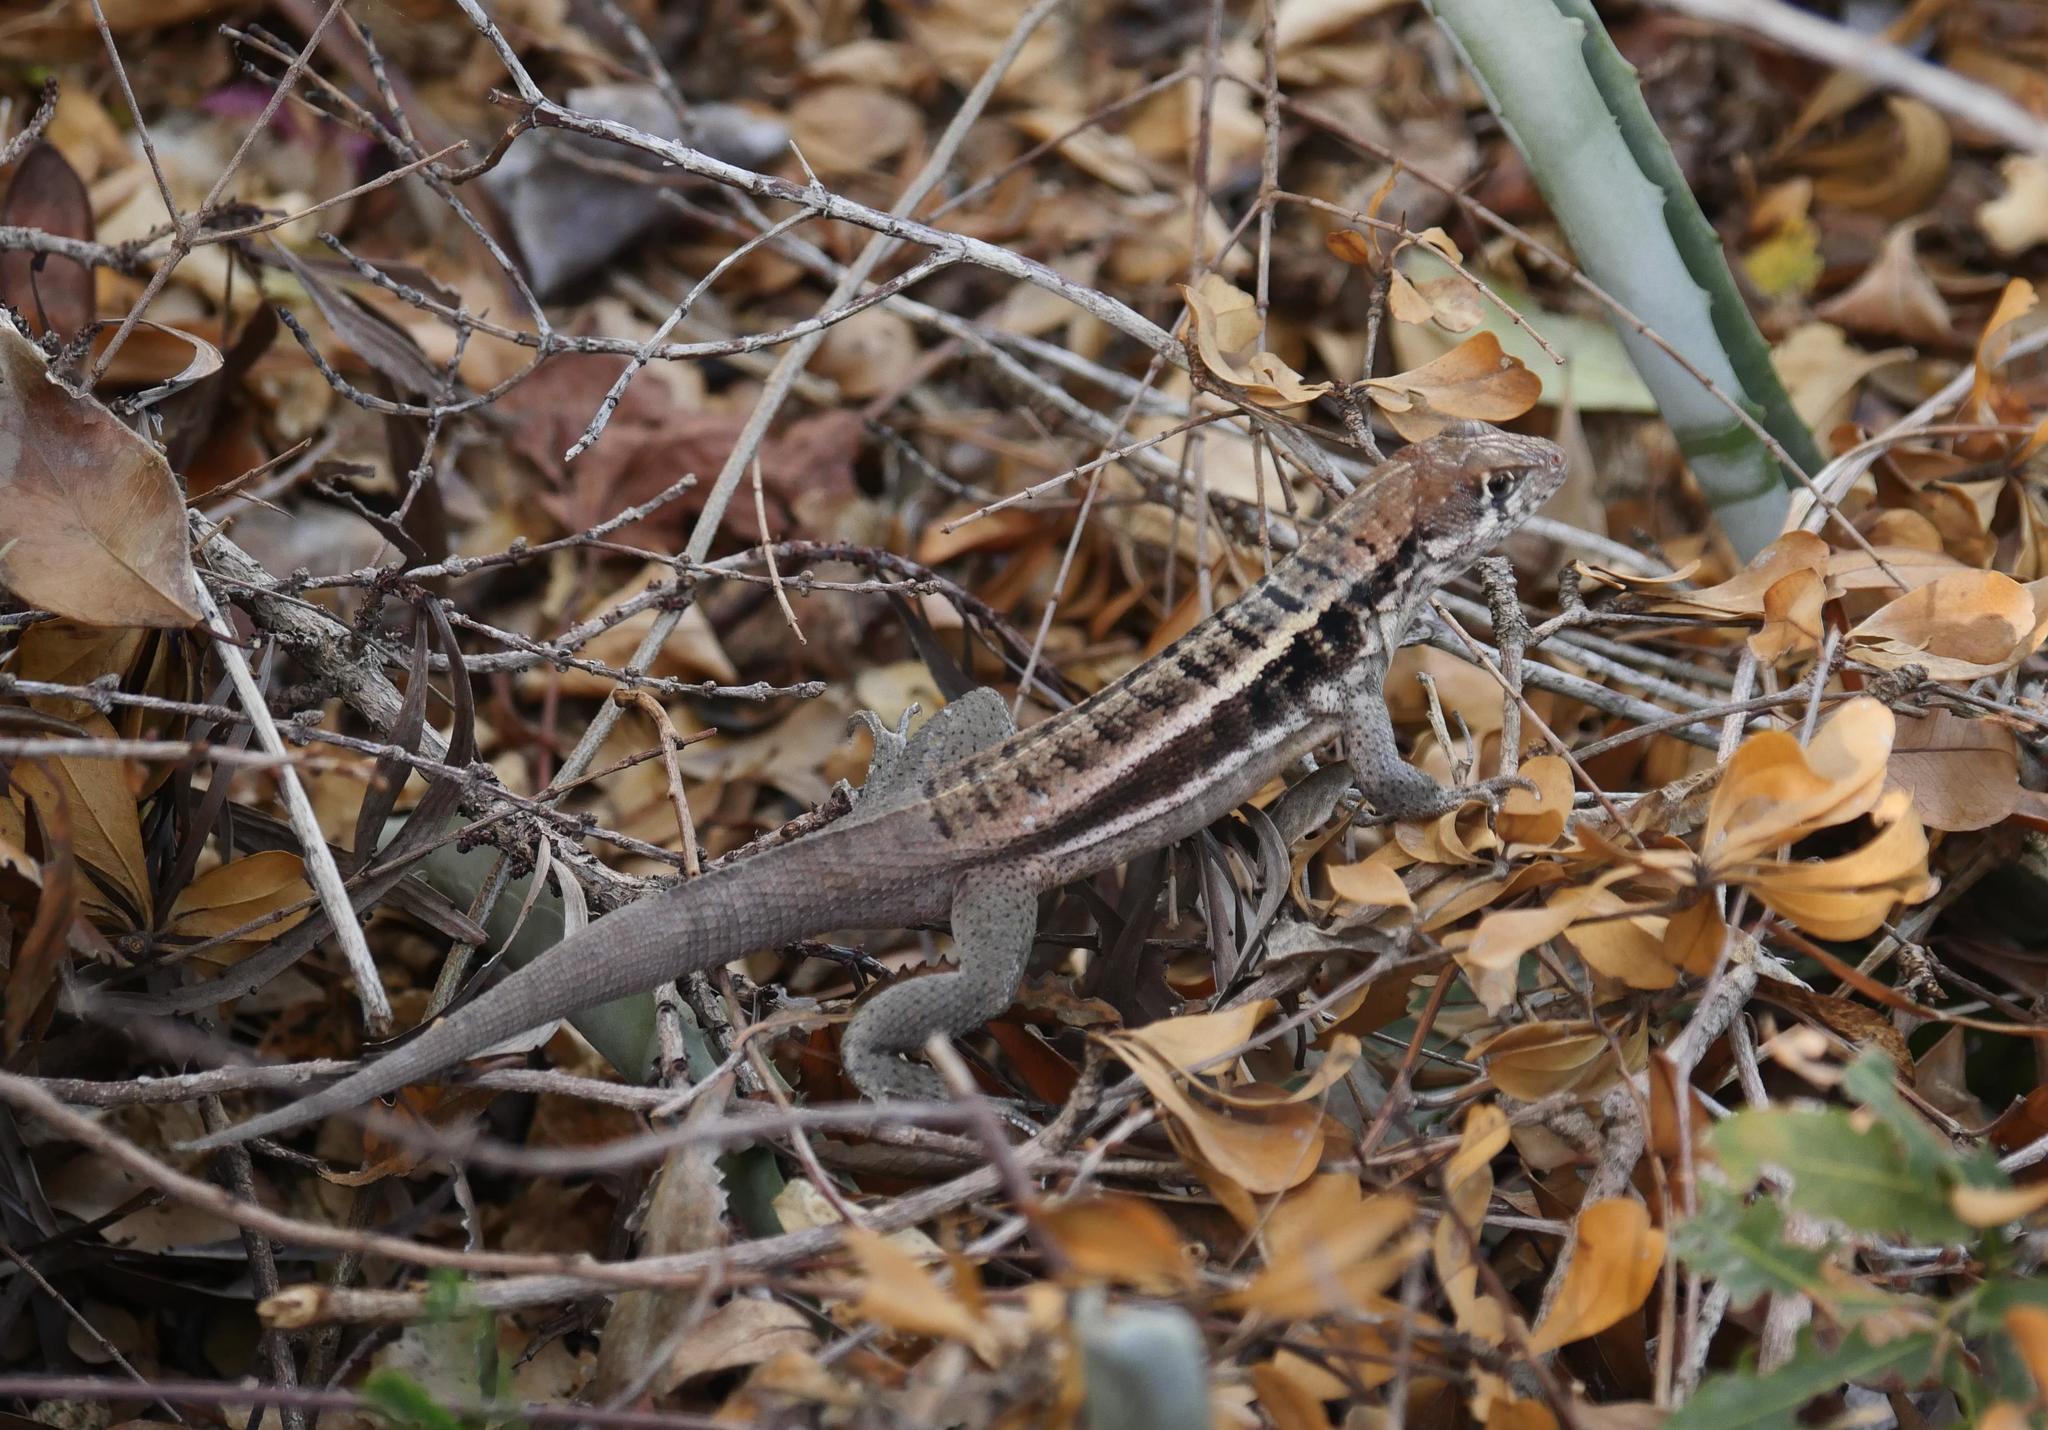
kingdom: Animalia
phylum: Chordata
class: Squamata
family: Leiocephalidae
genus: Leiocephalus
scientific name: Leiocephalus psammodromus
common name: Bastion cay curlytail lizard
